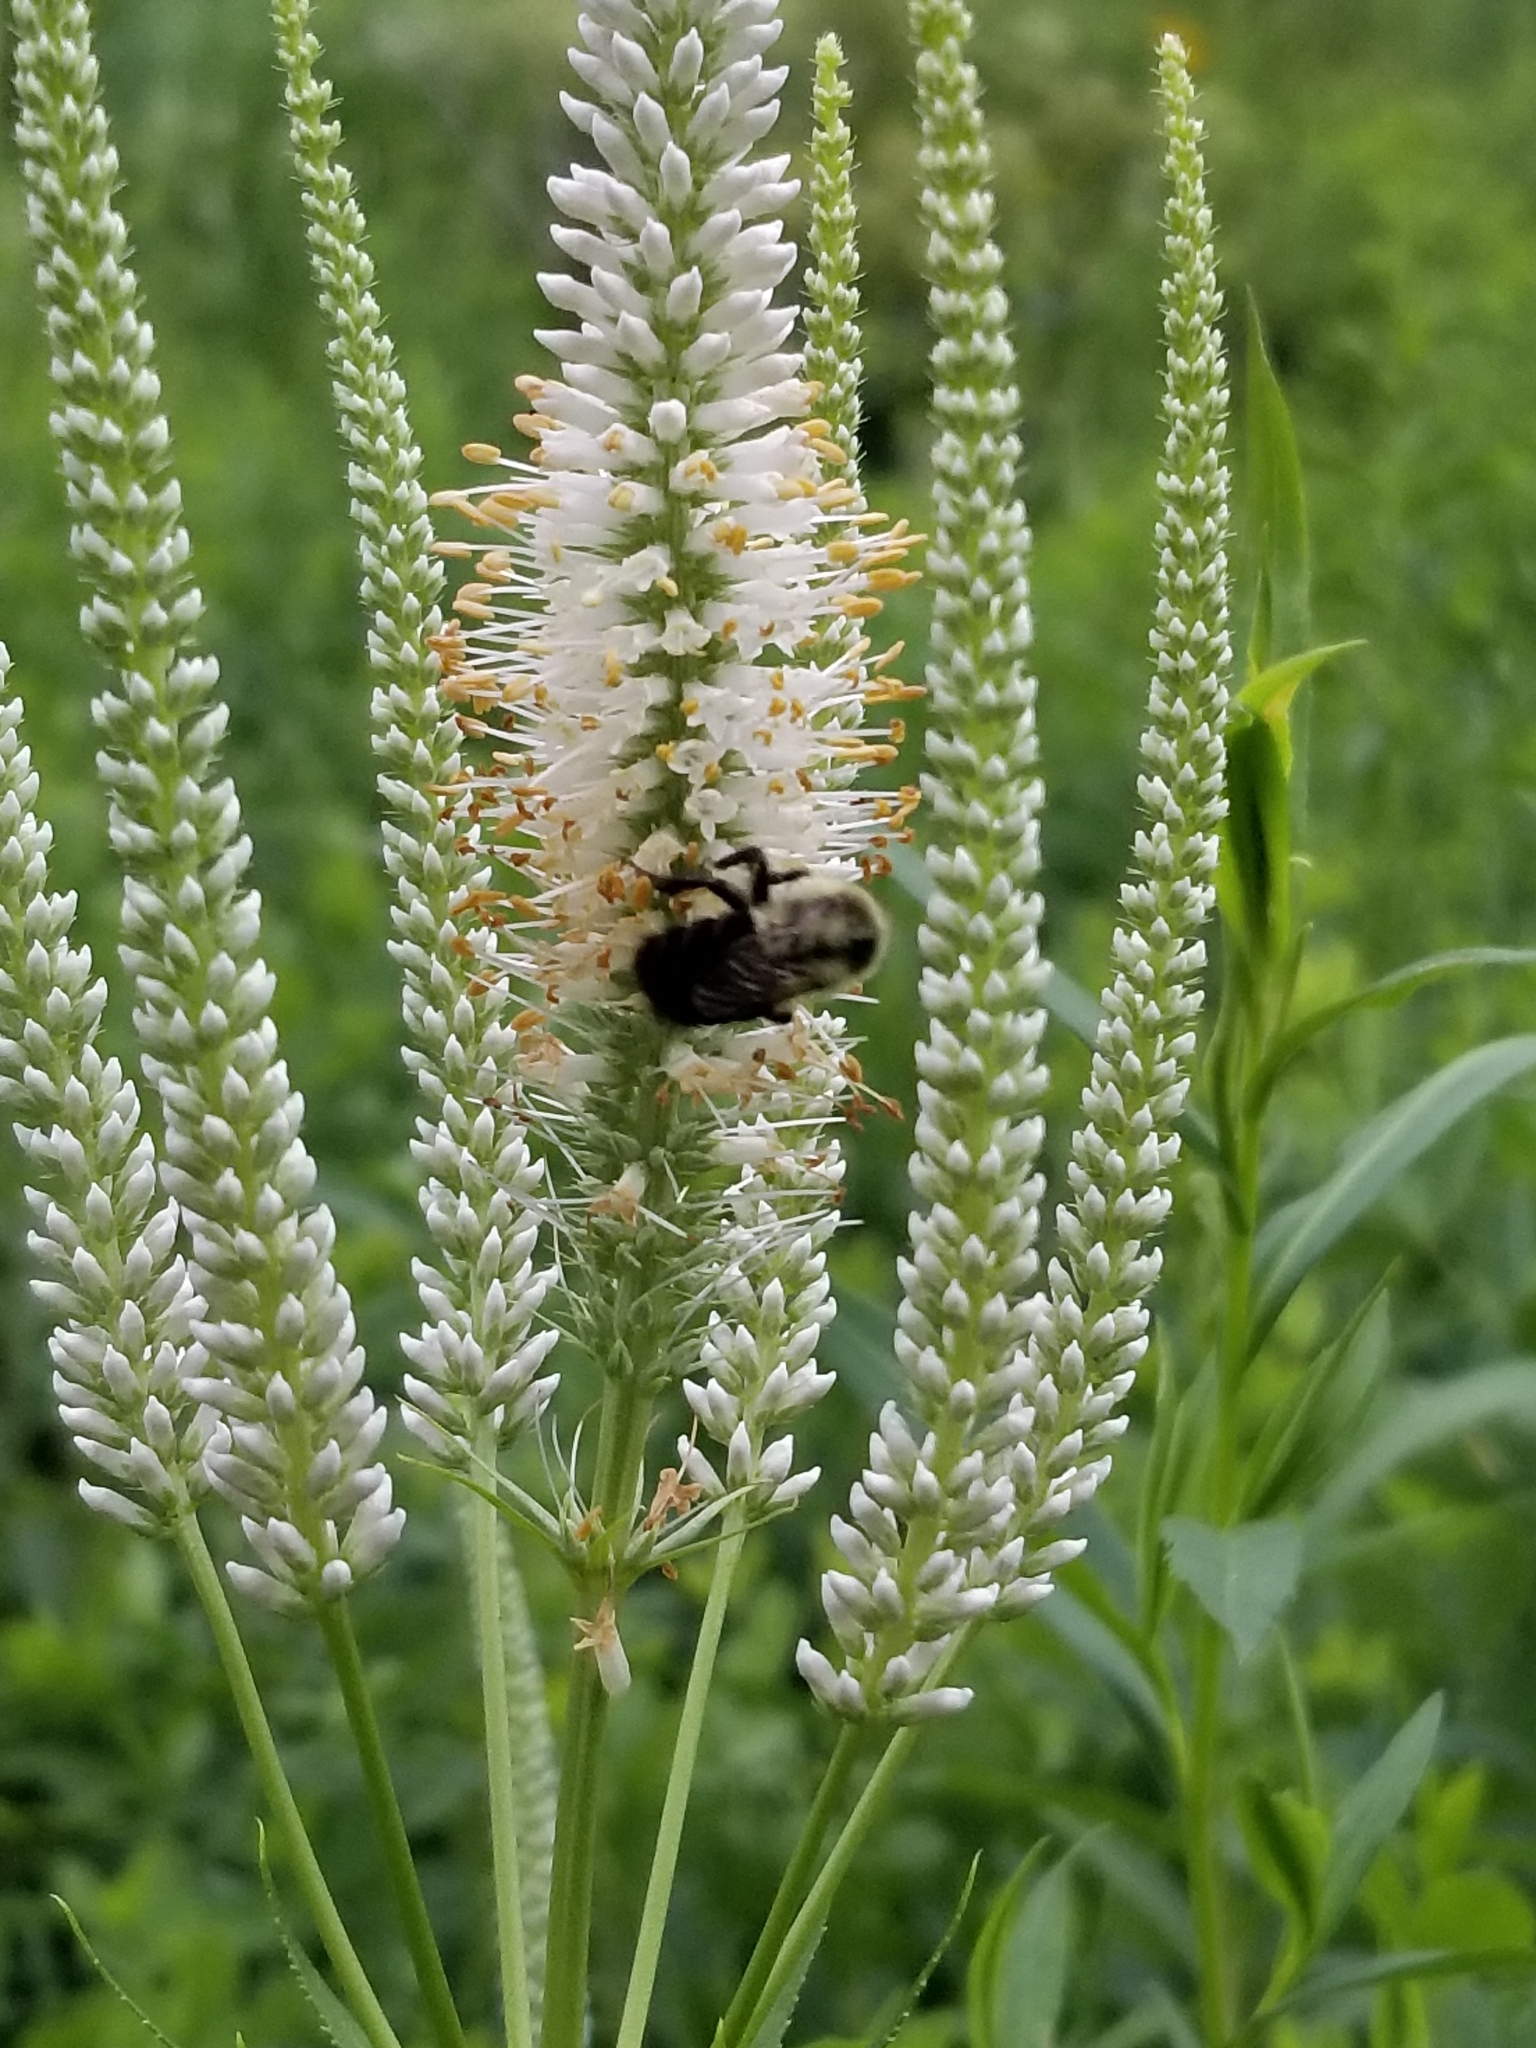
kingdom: Animalia
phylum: Arthropoda
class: Insecta
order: Hymenoptera
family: Apidae
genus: Bombus
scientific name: Bombus impatiens
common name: Common eastern bumble bee
